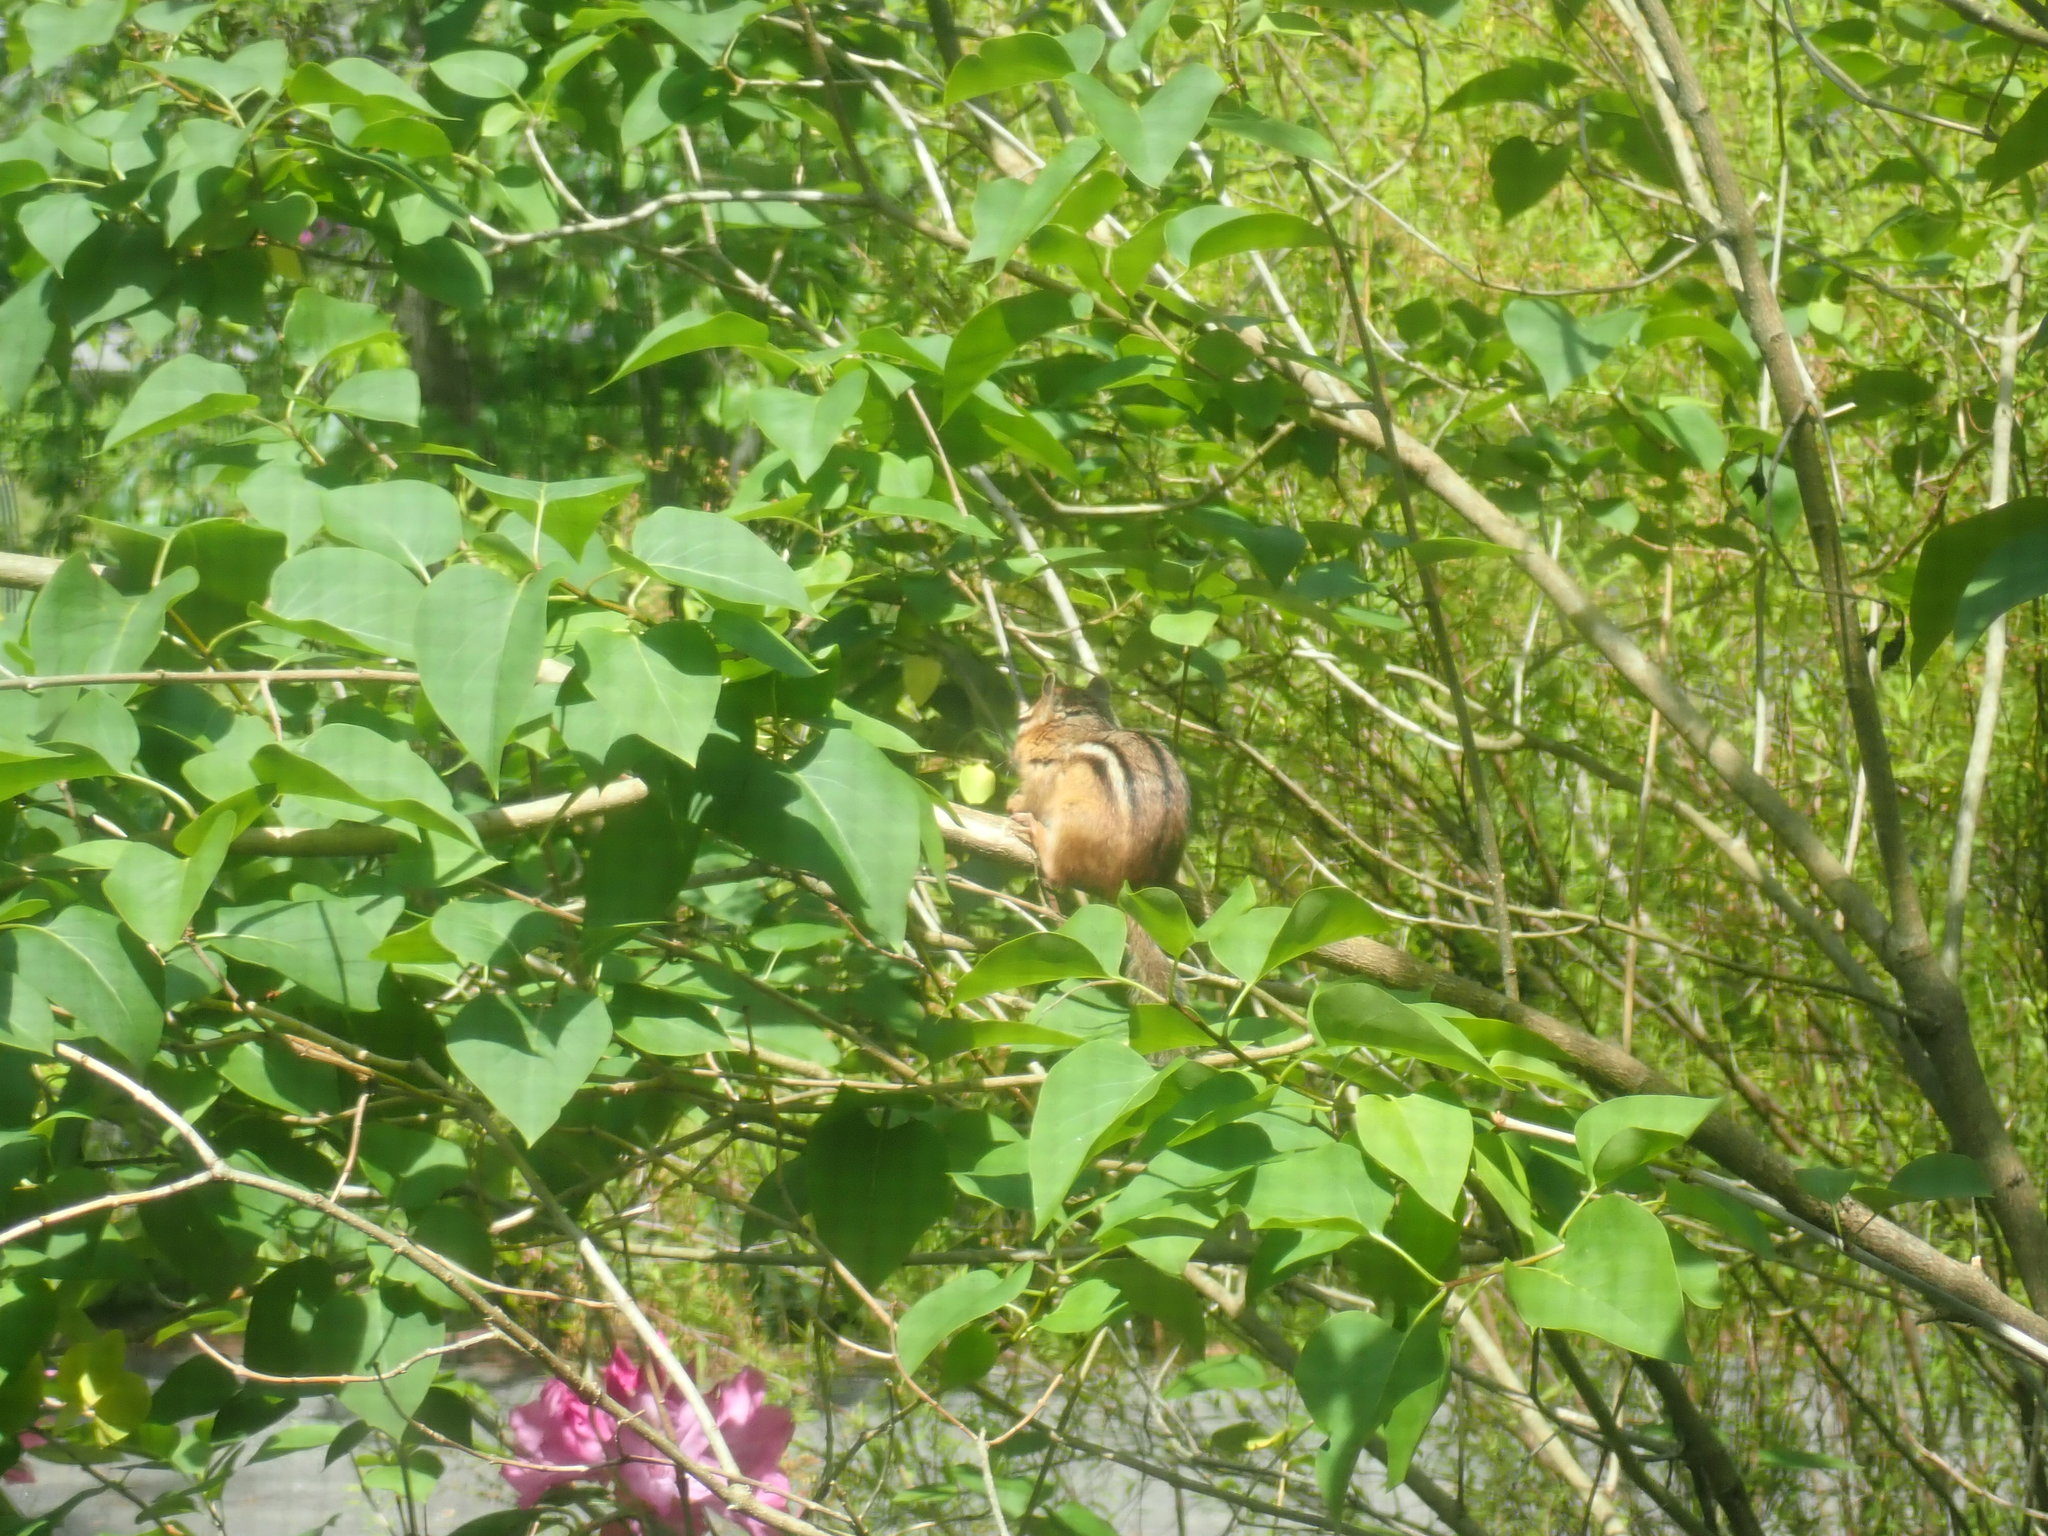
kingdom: Animalia
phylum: Chordata
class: Mammalia
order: Rodentia
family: Sciuridae
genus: Tamias
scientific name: Tamias striatus
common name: Eastern chipmunk
